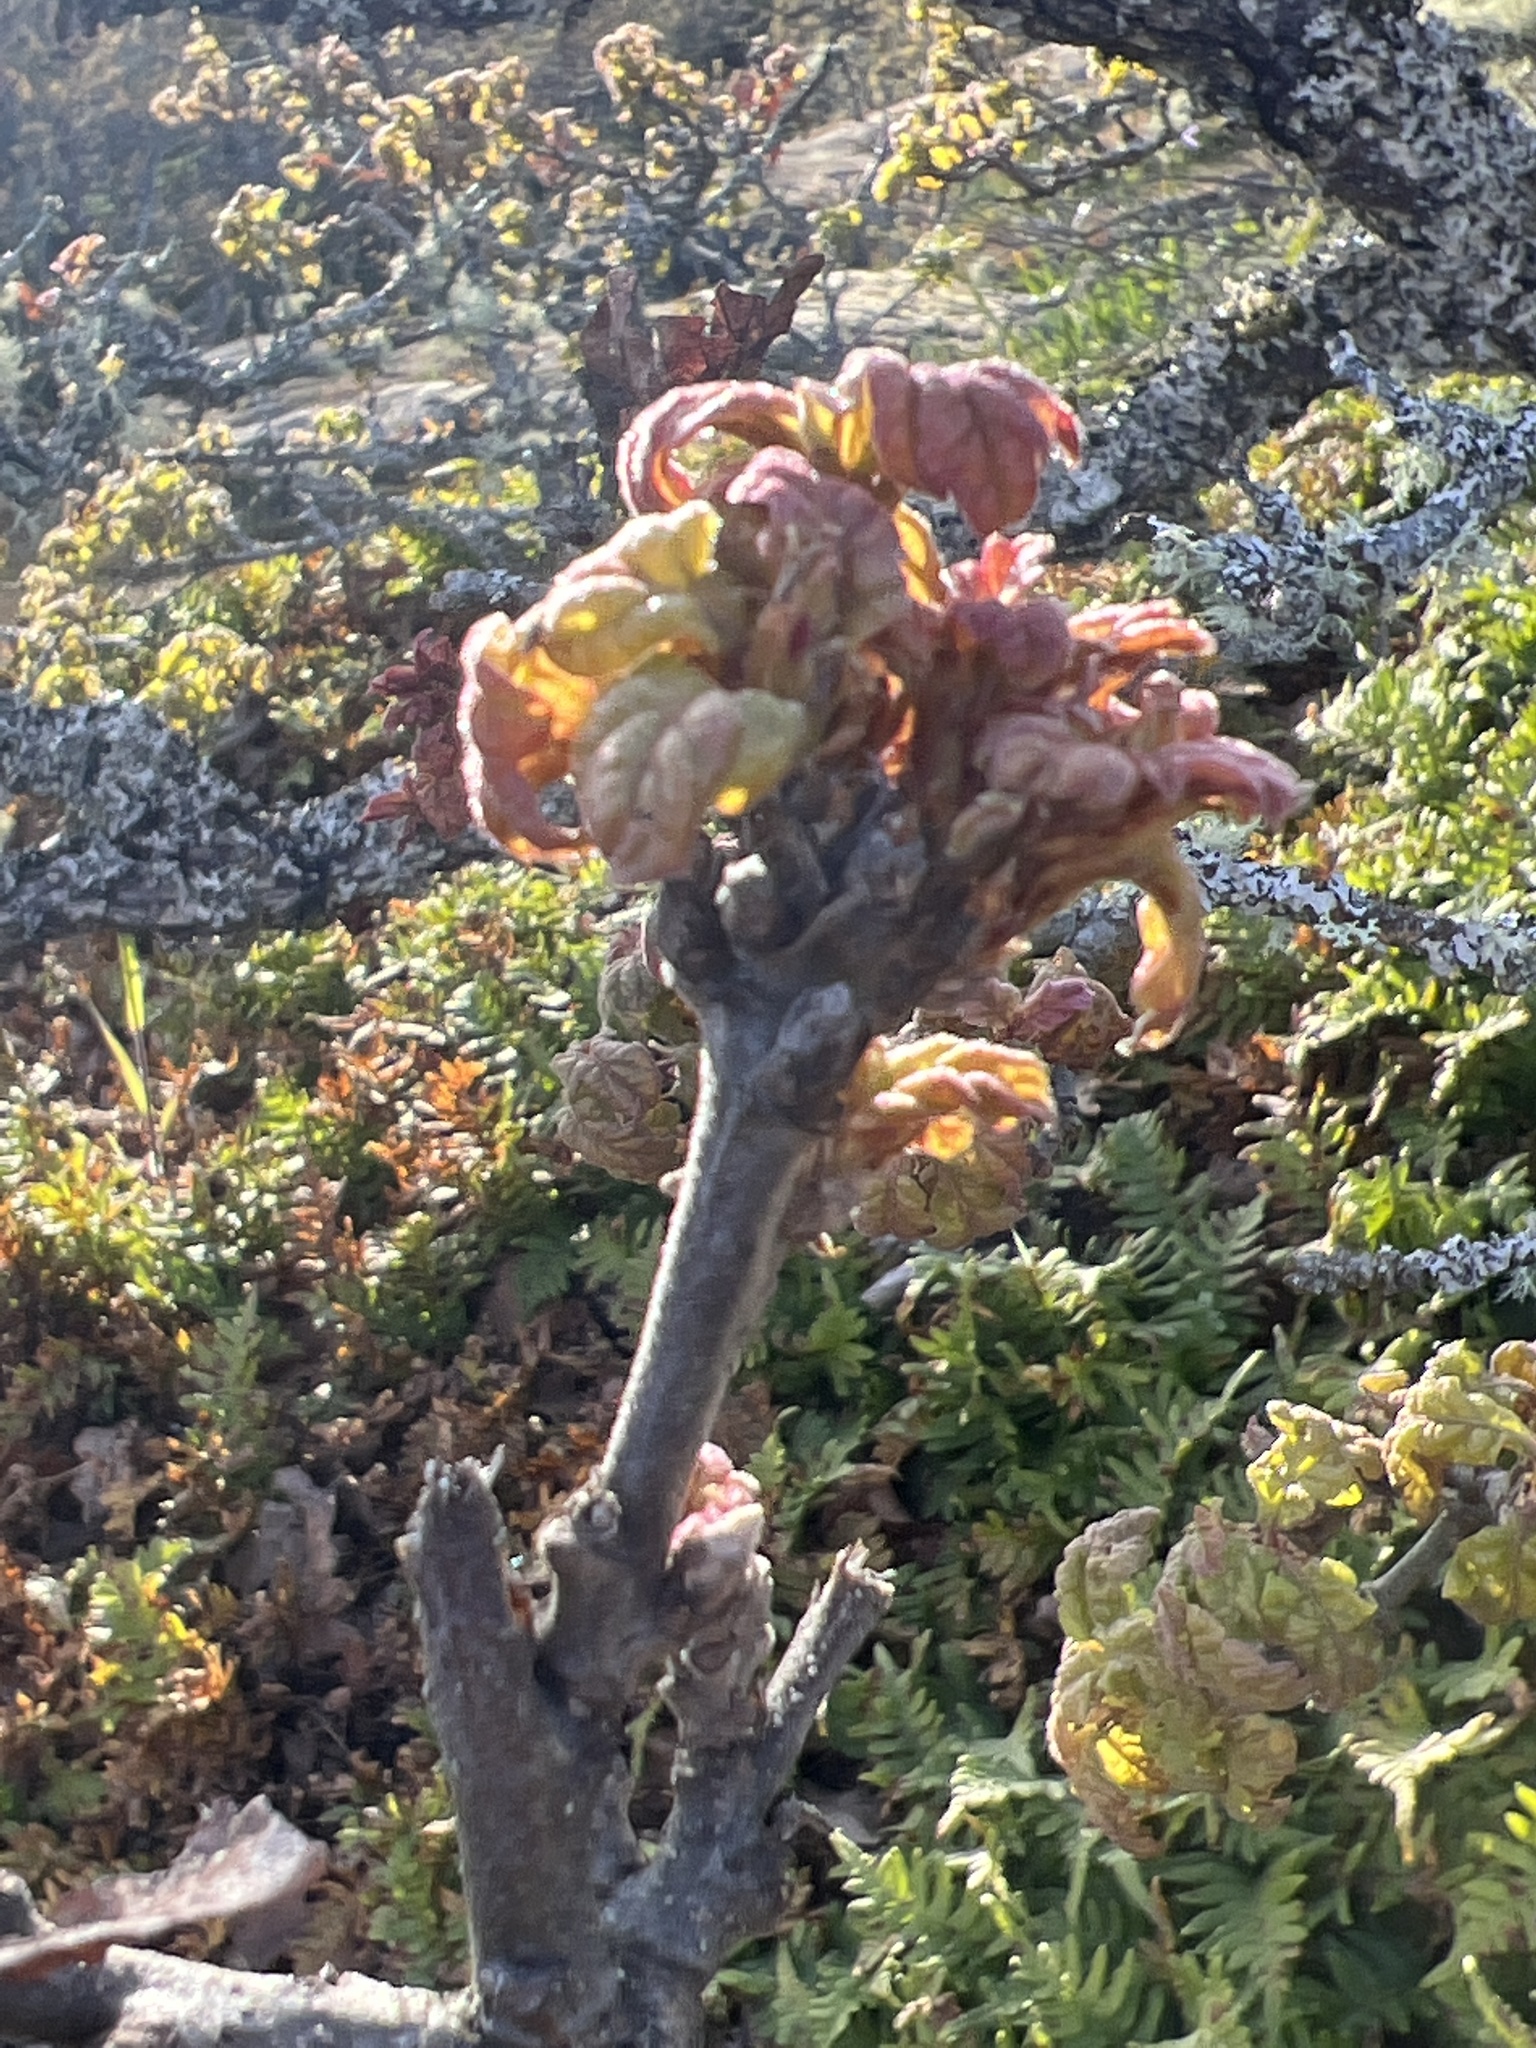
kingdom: Plantae
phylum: Tracheophyta
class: Magnoliopsida
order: Fagales
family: Fagaceae
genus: Quercus
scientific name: Quercus garryana
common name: Garry oak
